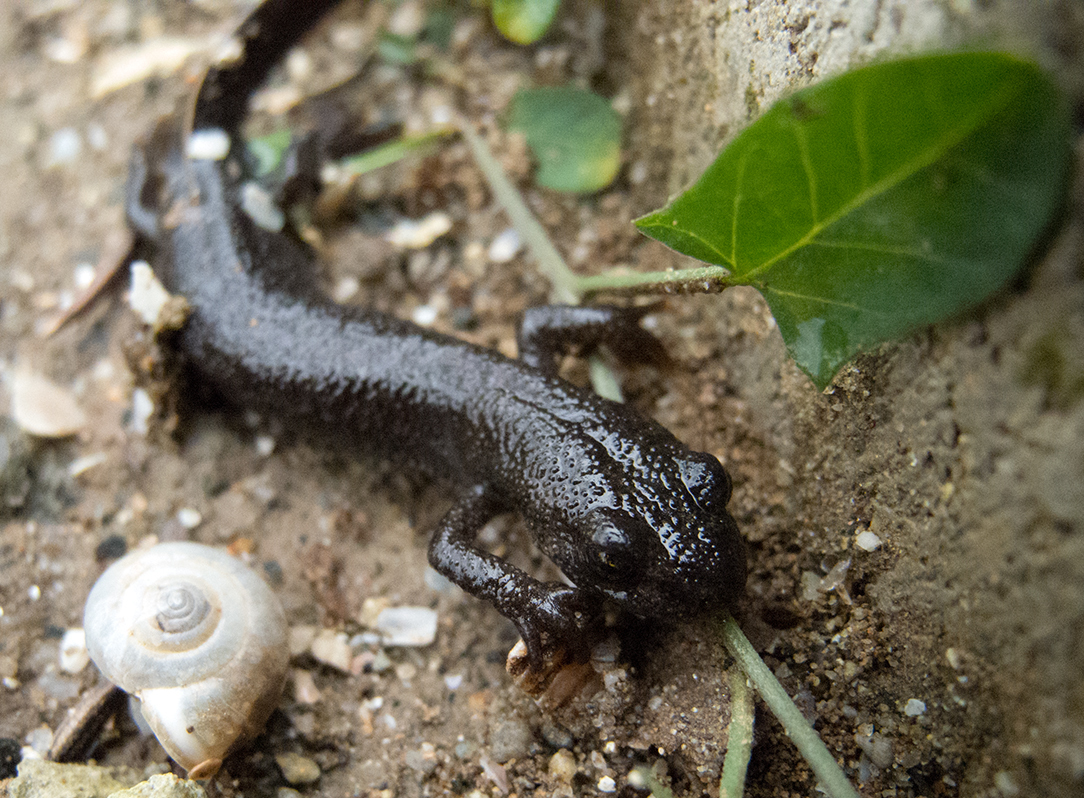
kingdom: Animalia
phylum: Chordata
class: Amphibia
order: Caudata
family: Salamandridae
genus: Triturus
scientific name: Triturus ivanbureschi
